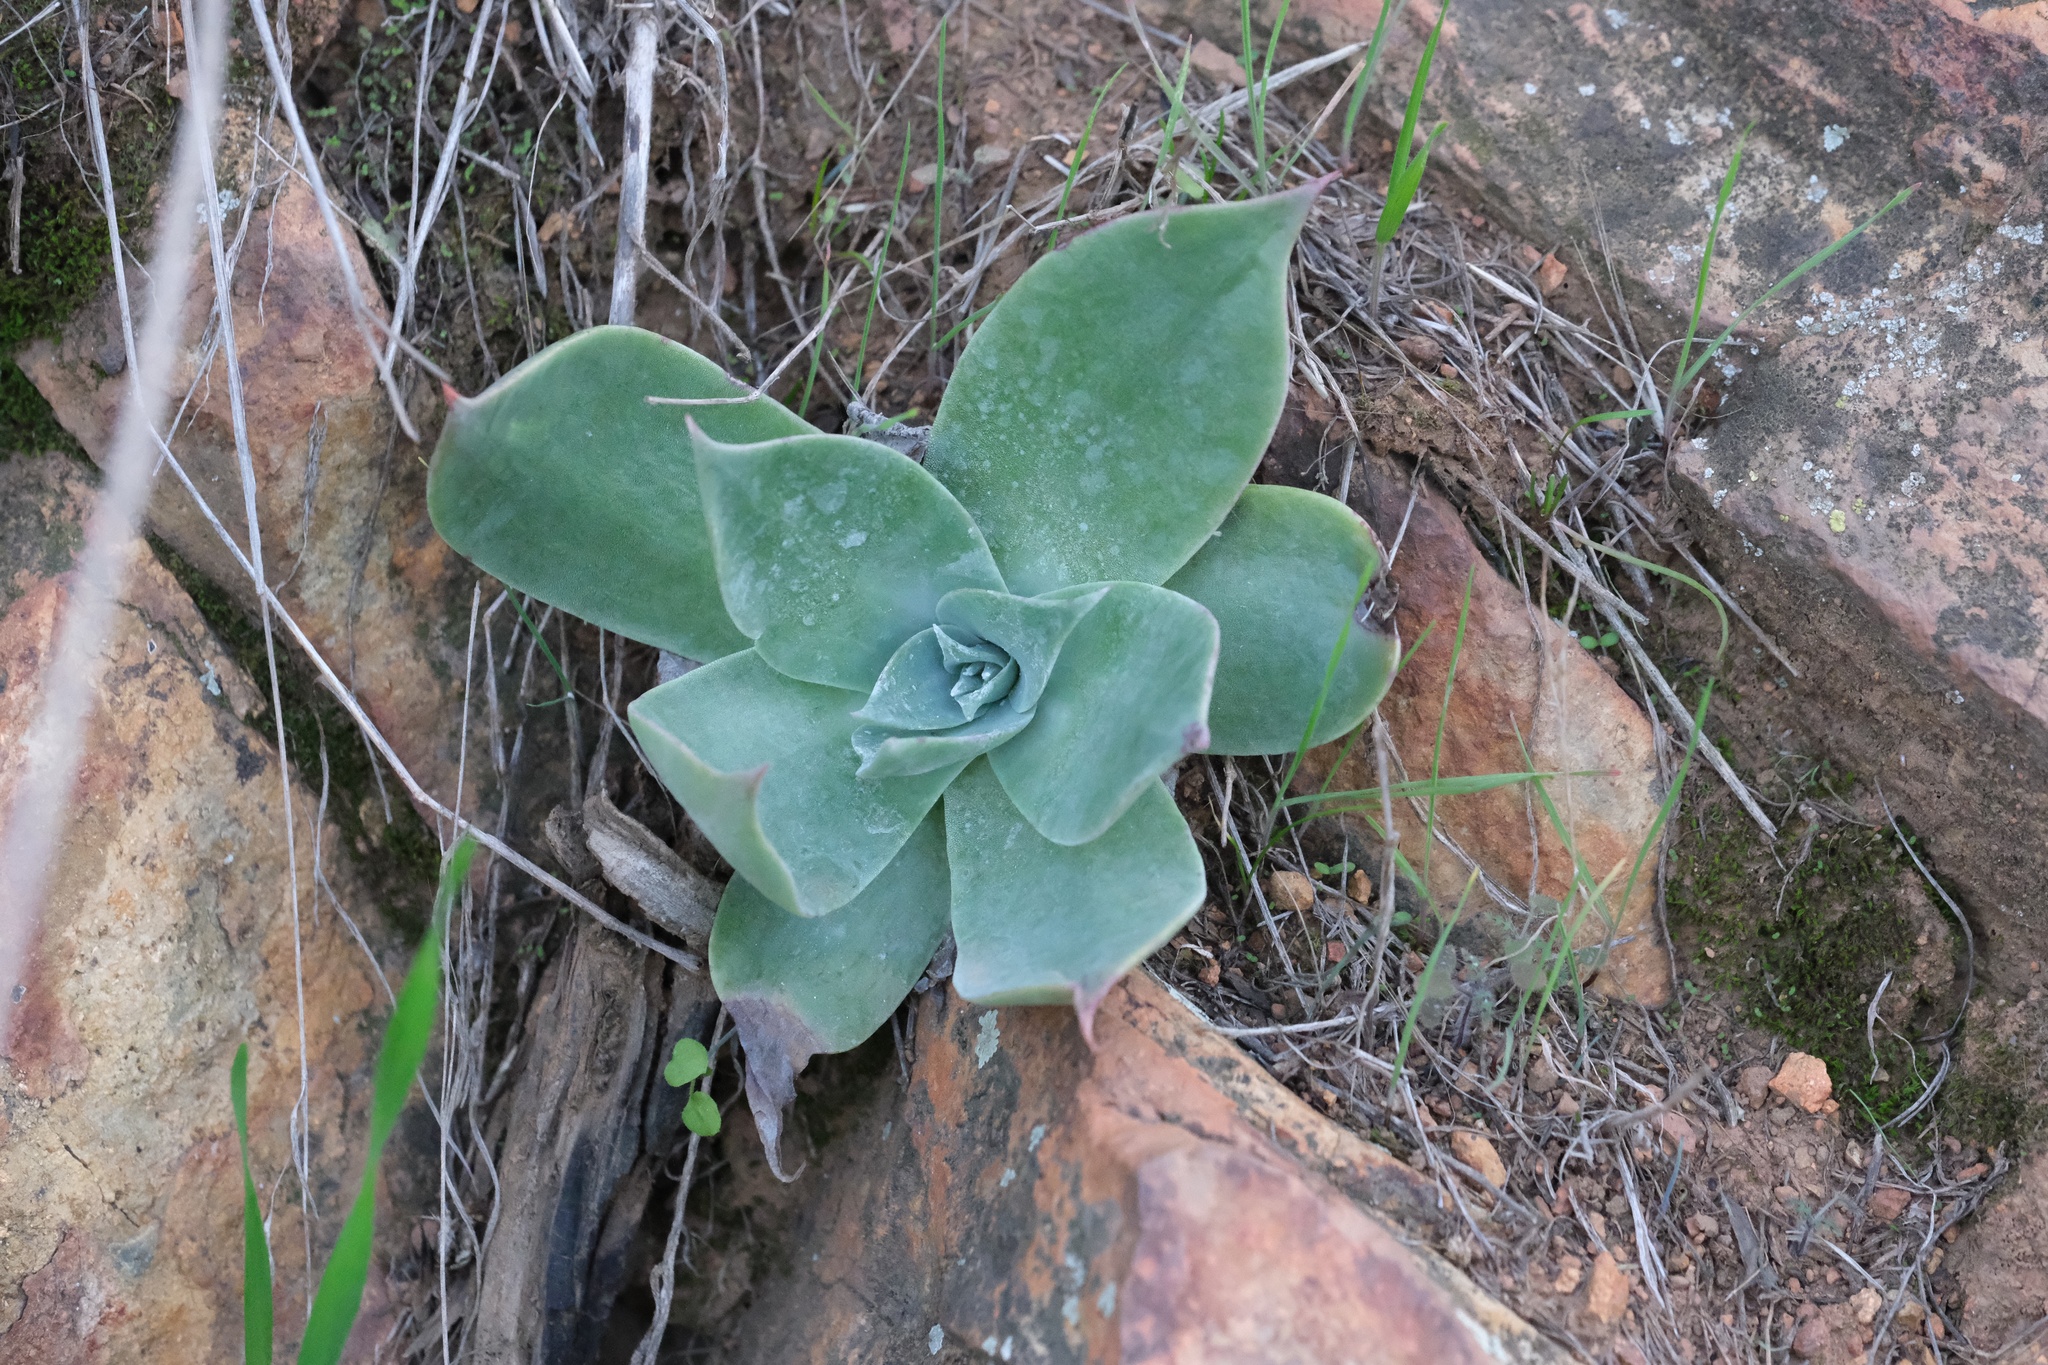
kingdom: Plantae
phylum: Tracheophyta
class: Magnoliopsida
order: Saxifragales
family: Crassulaceae
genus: Dudleya
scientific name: Dudleya pulverulenta
